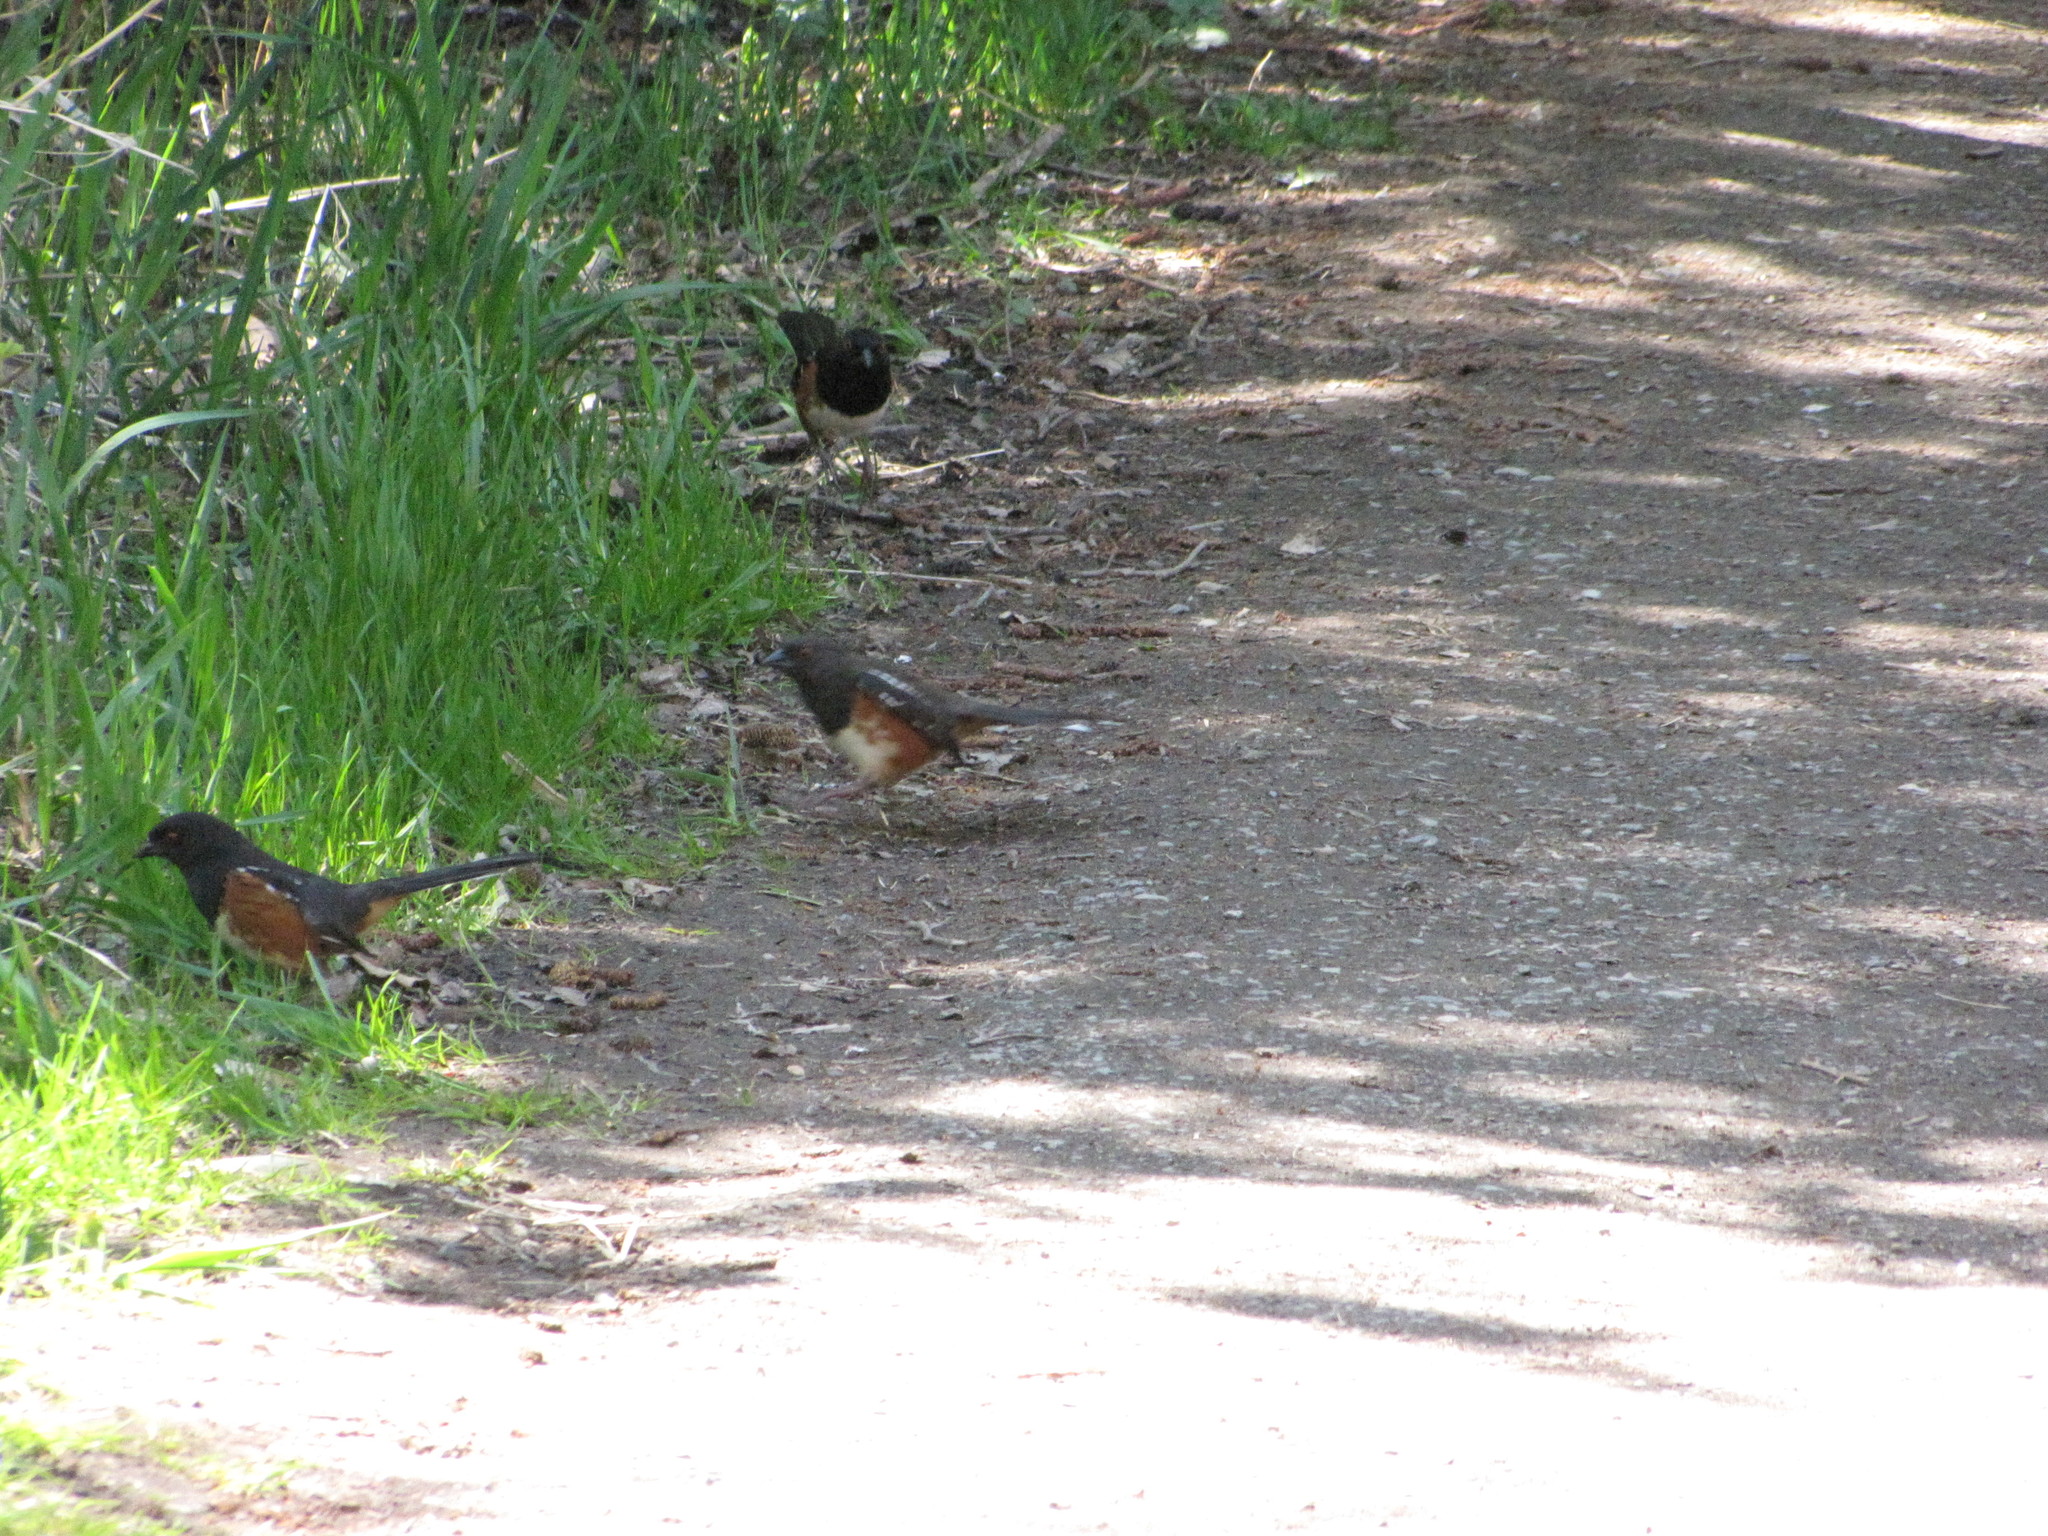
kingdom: Animalia
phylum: Chordata
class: Aves
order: Passeriformes
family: Passerellidae
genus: Pipilo
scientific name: Pipilo maculatus
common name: Spotted towhee
